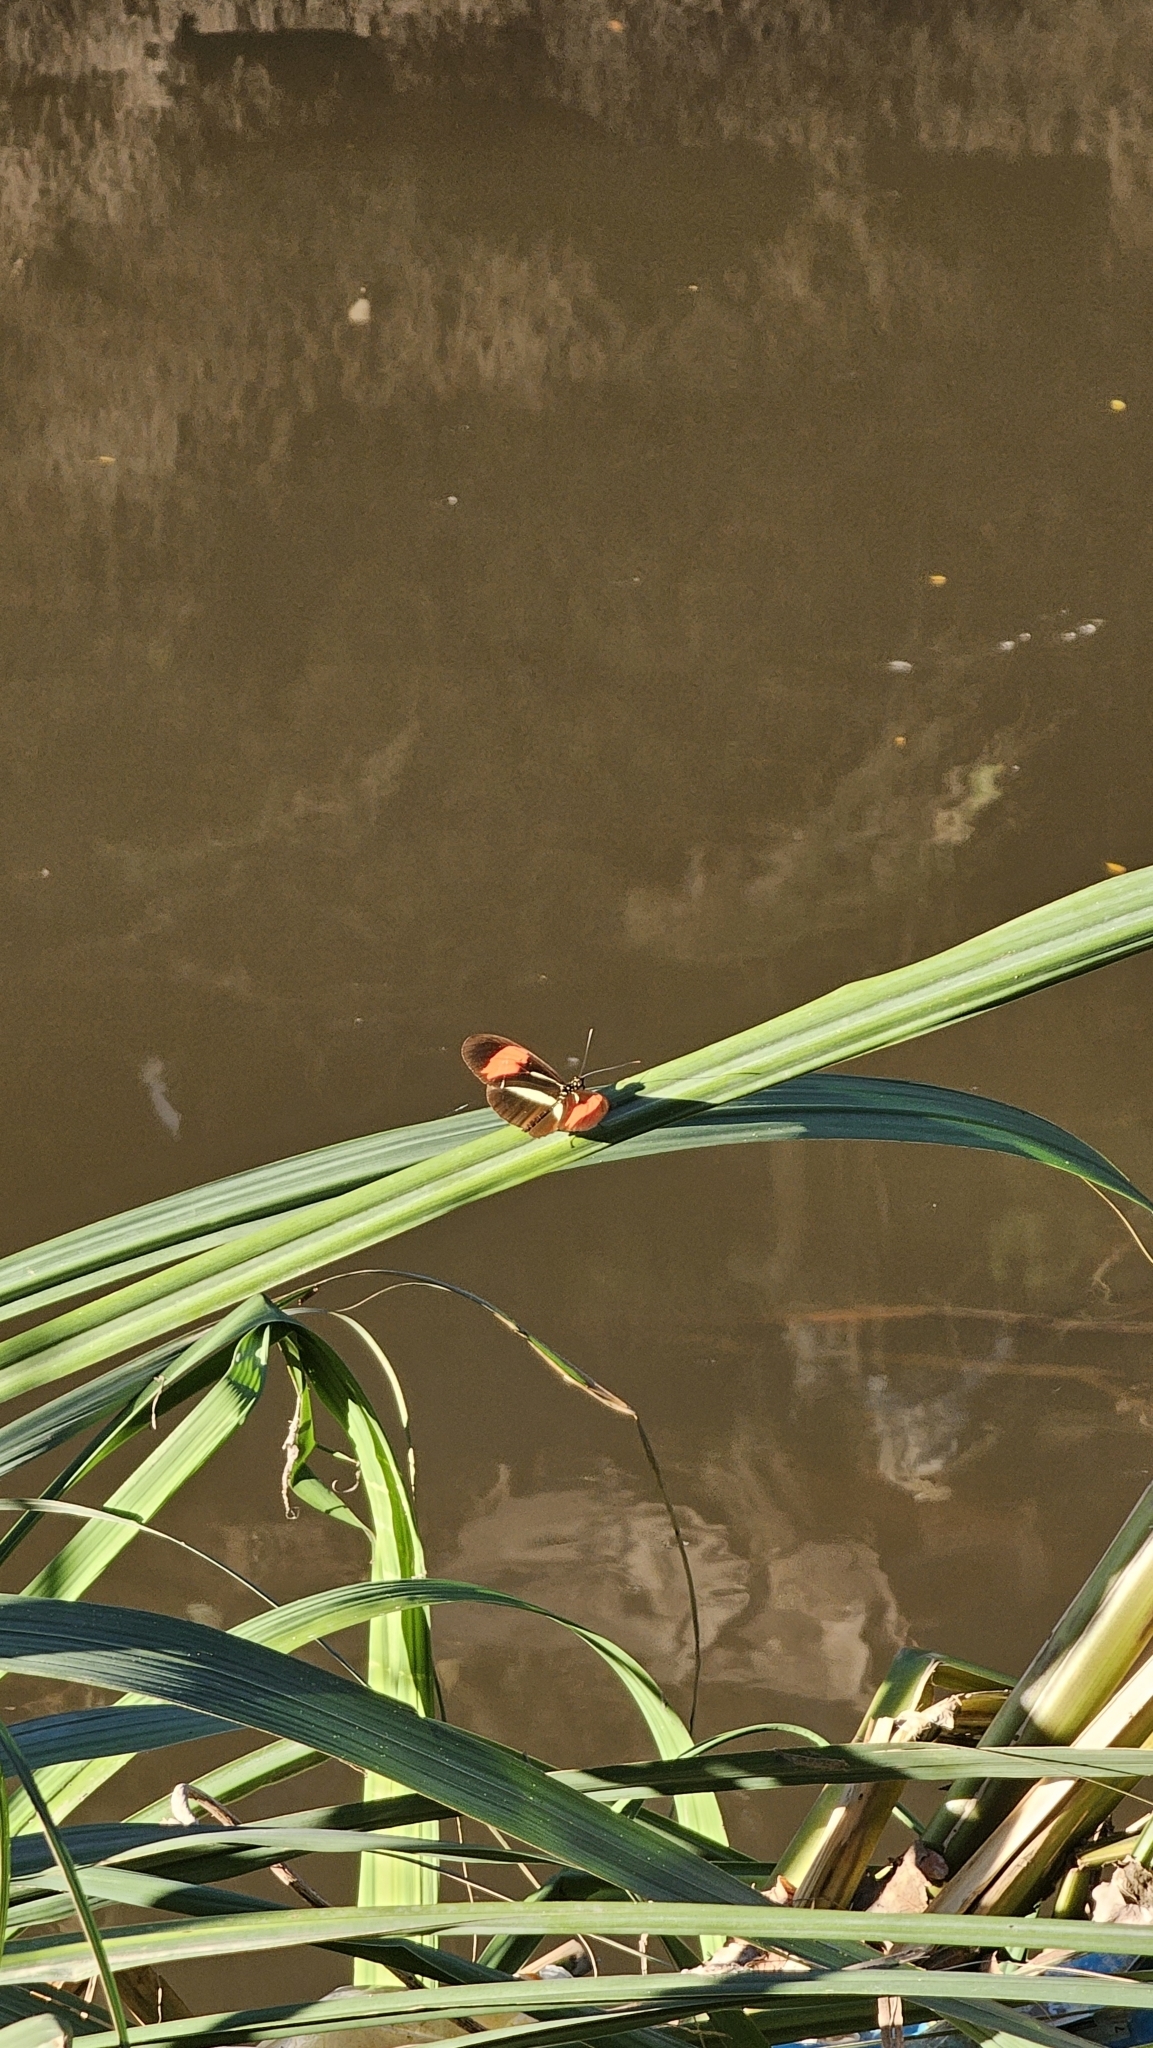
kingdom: Animalia
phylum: Arthropoda
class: Insecta
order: Lepidoptera
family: Nymphalidae
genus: Heliconius
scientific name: Heliconius erato
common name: Common patch longwing
